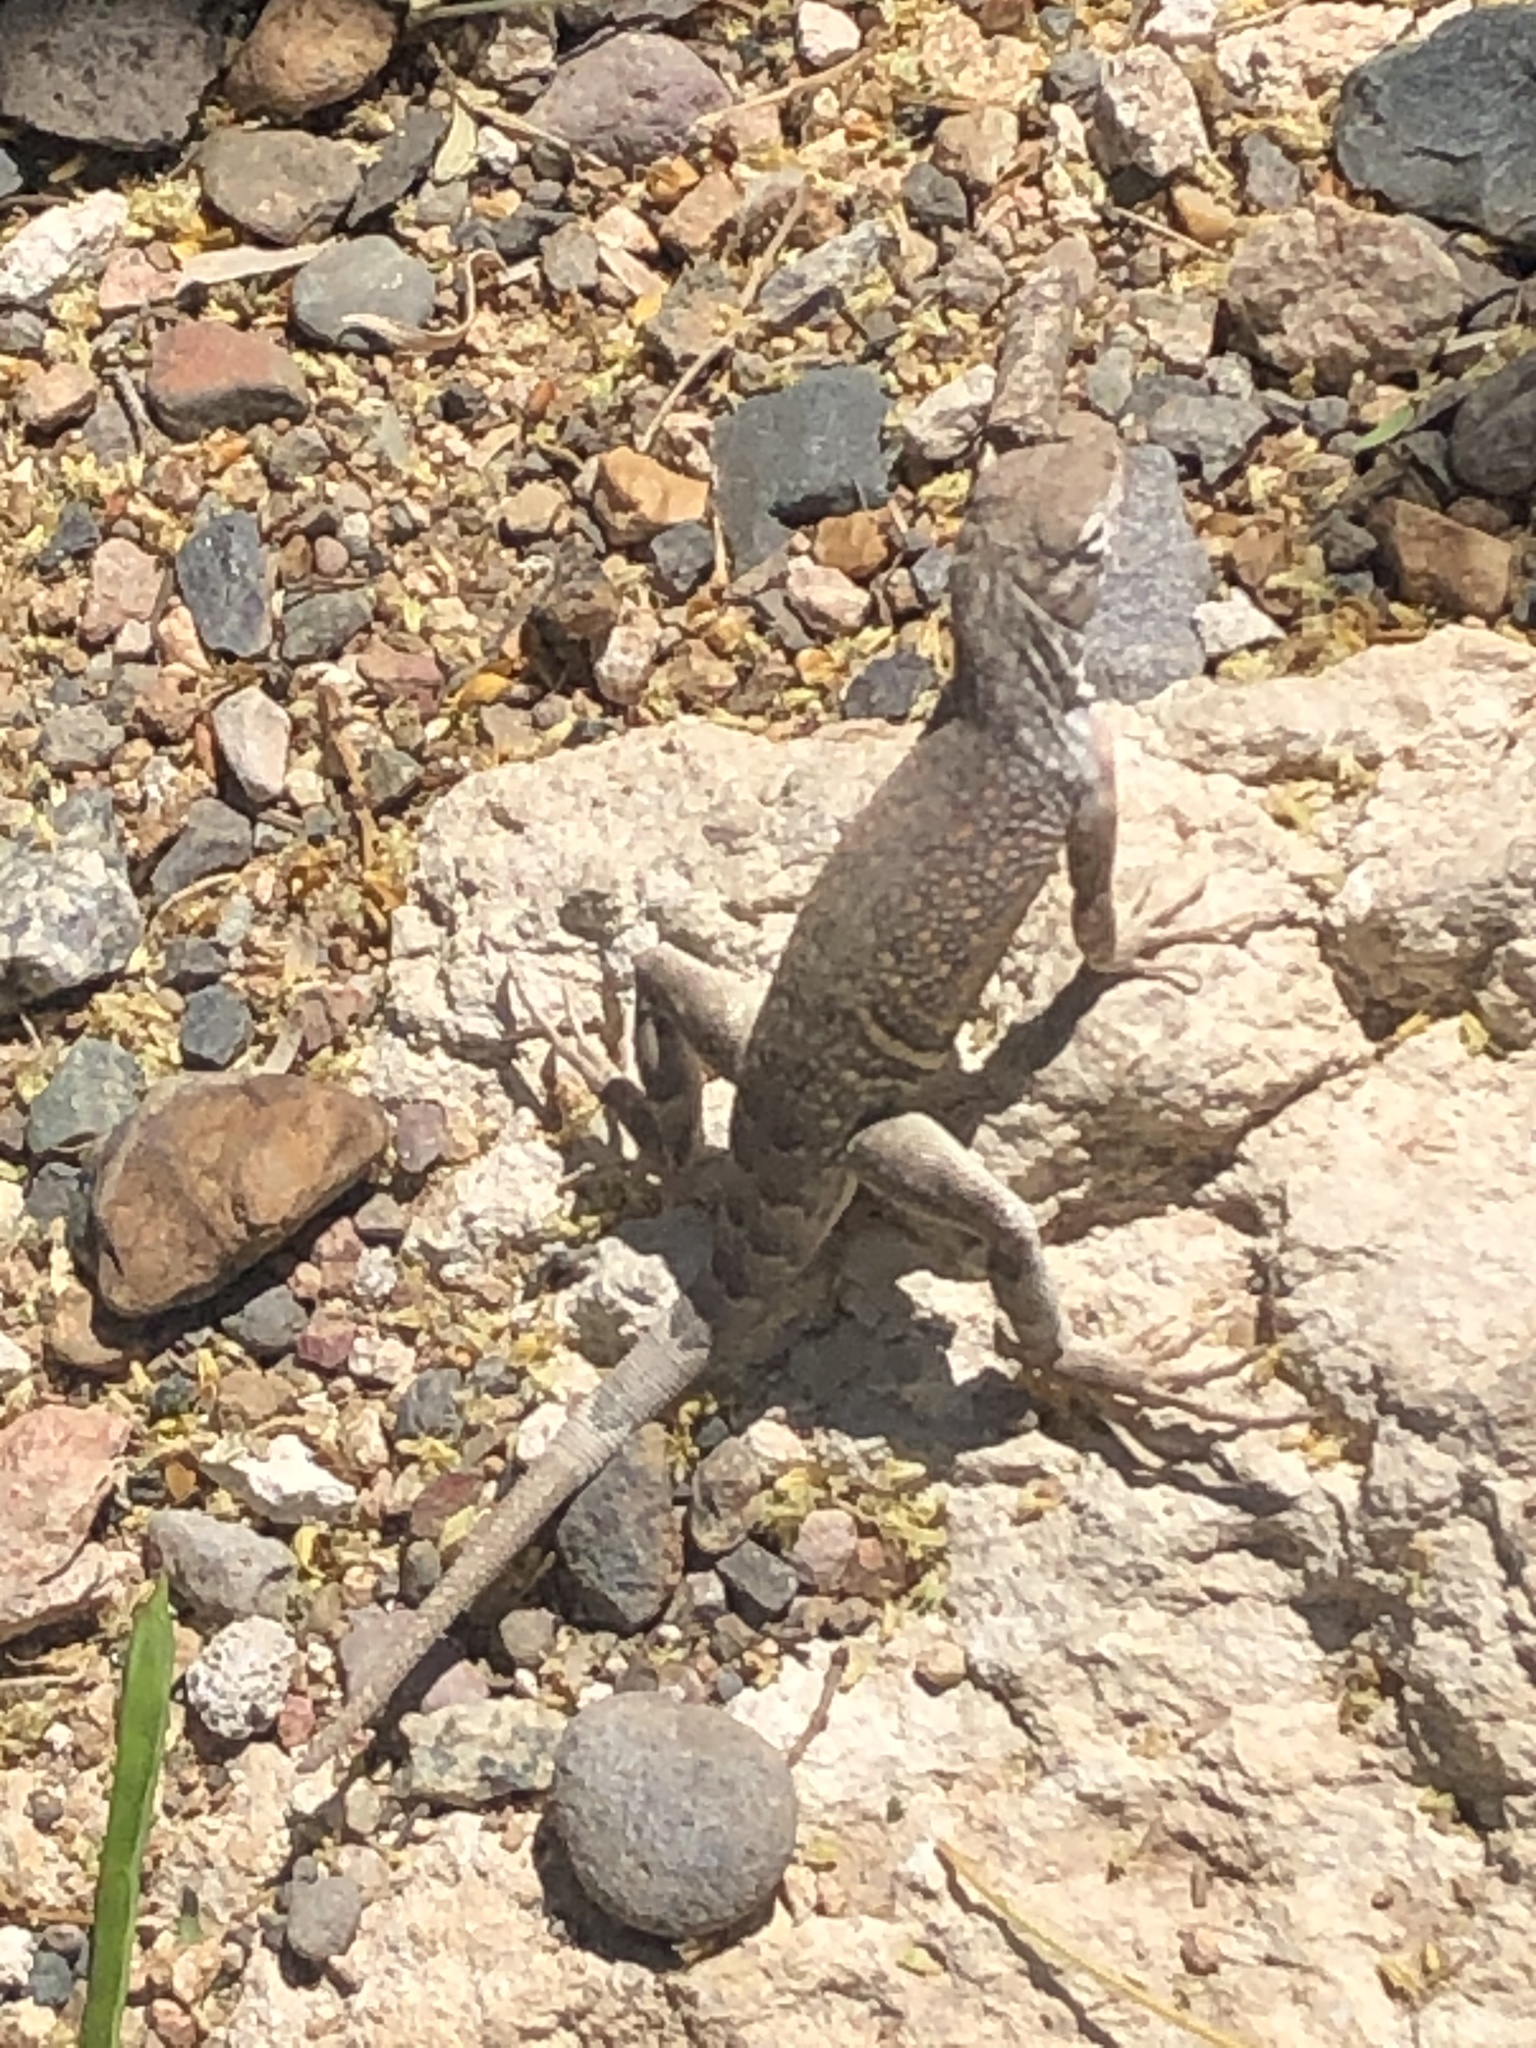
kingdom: Animalia
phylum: Chordata
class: Squamata
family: Phrynosomatidae
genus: Cophosaurus
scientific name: Cophosaurus texanus
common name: Greater earless lizard
